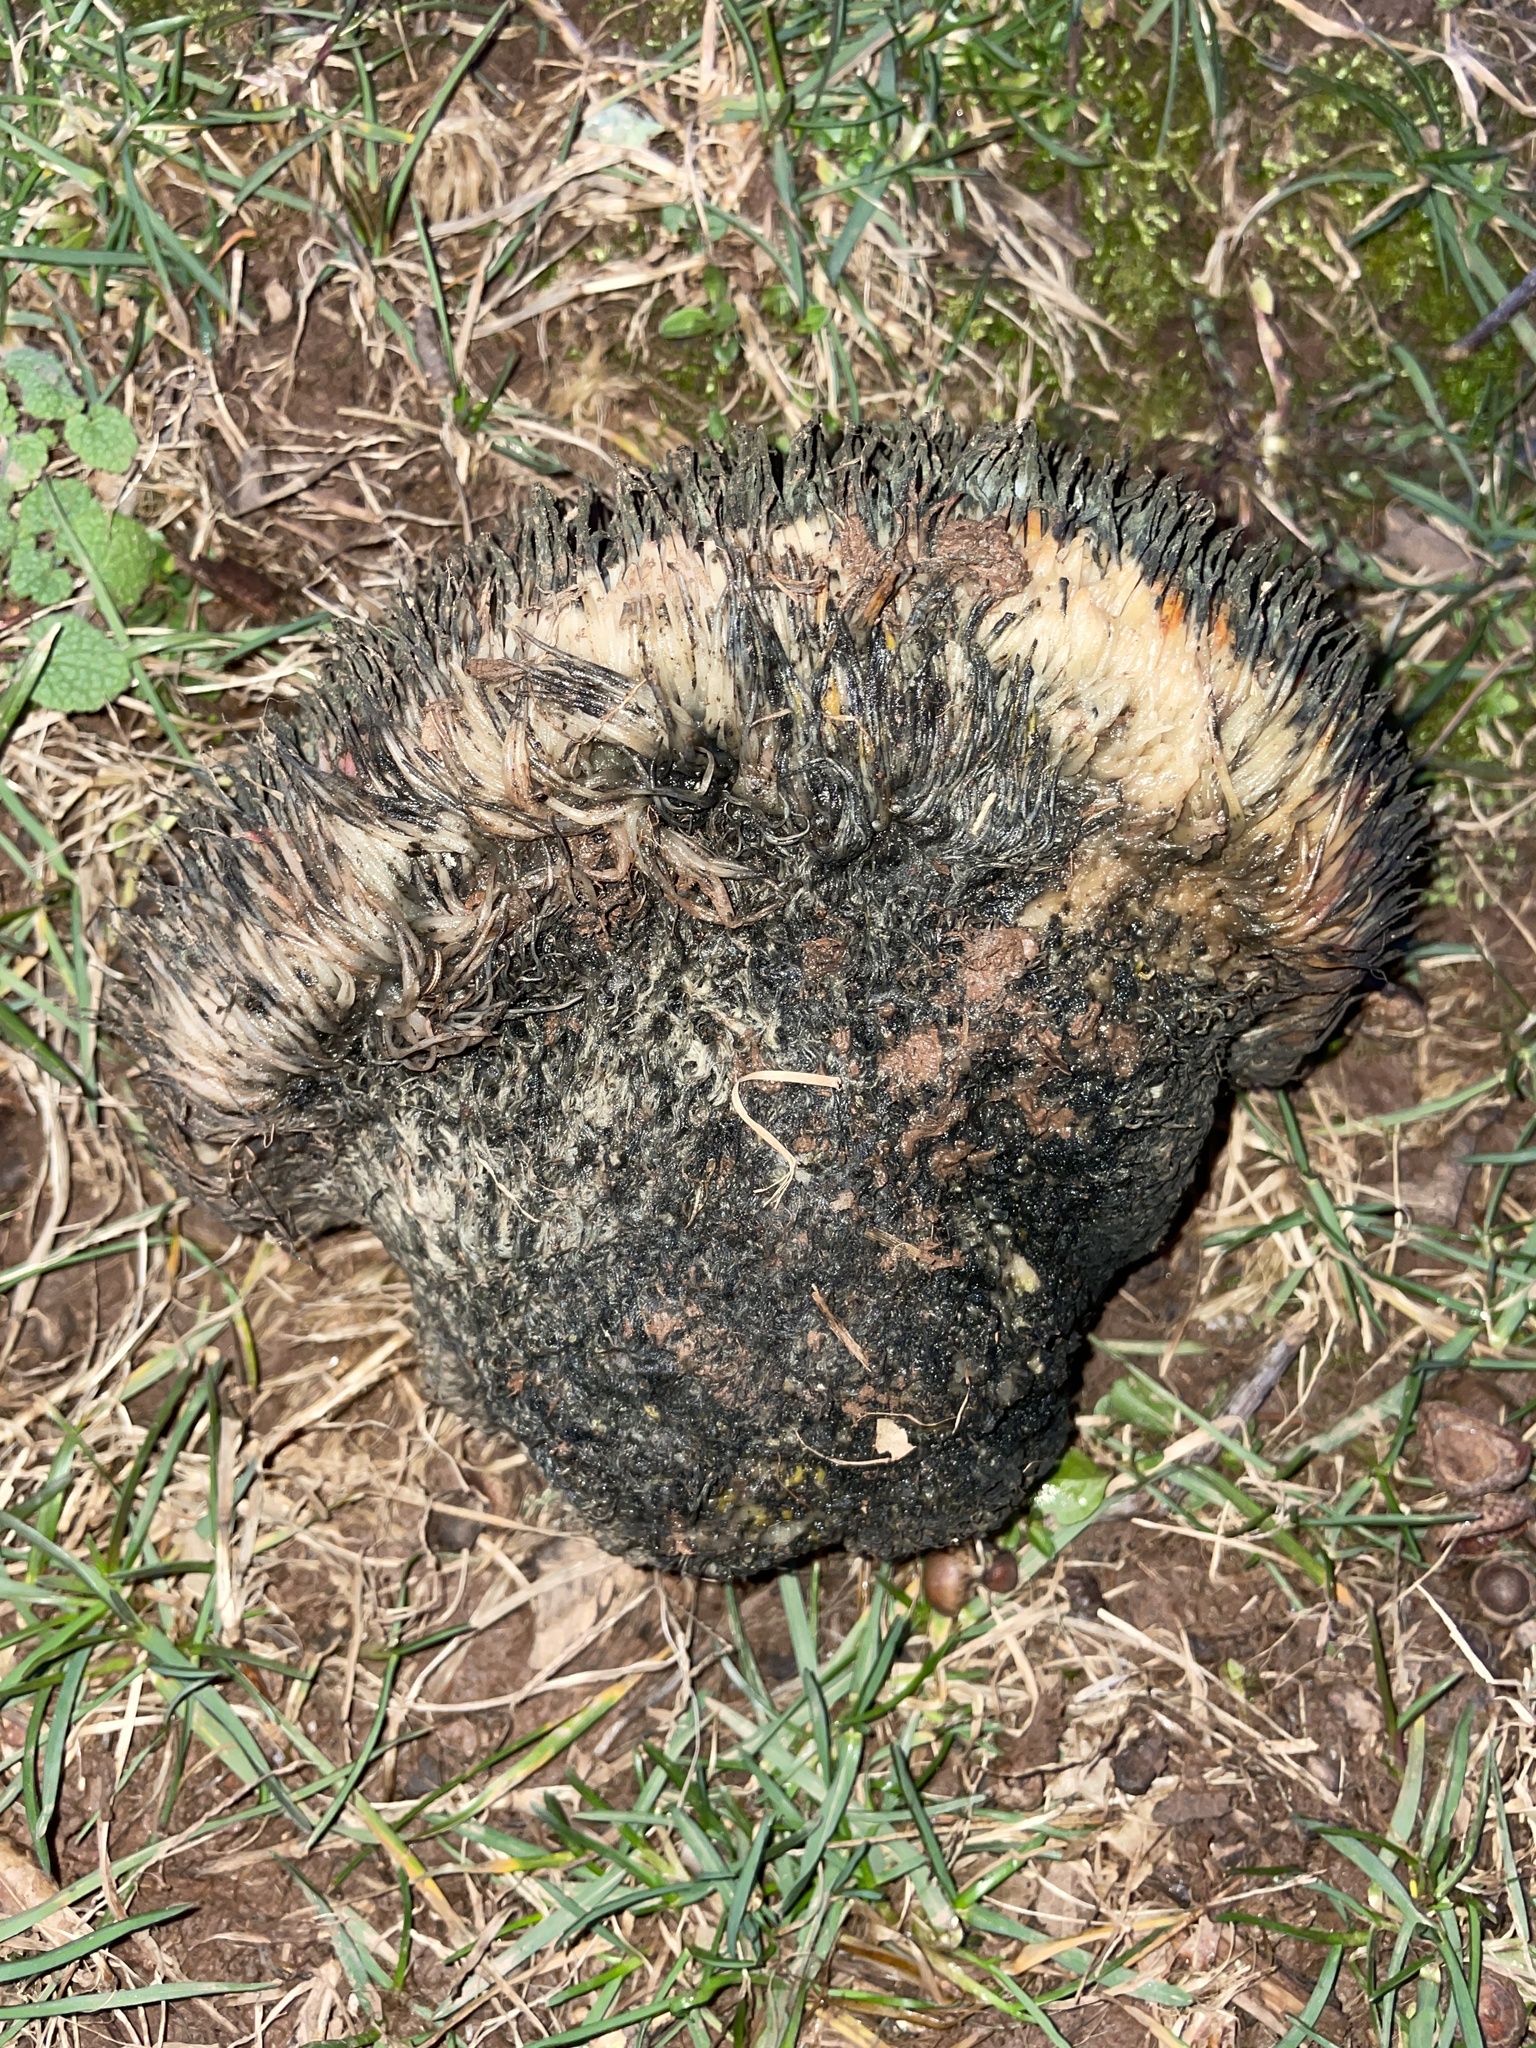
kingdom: Fungi
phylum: Basidiomycota
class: Agaricomycetes
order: Russulales
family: Hericiaceae
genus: Hericium
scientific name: Hericium erinaceus
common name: Bearded tooth
